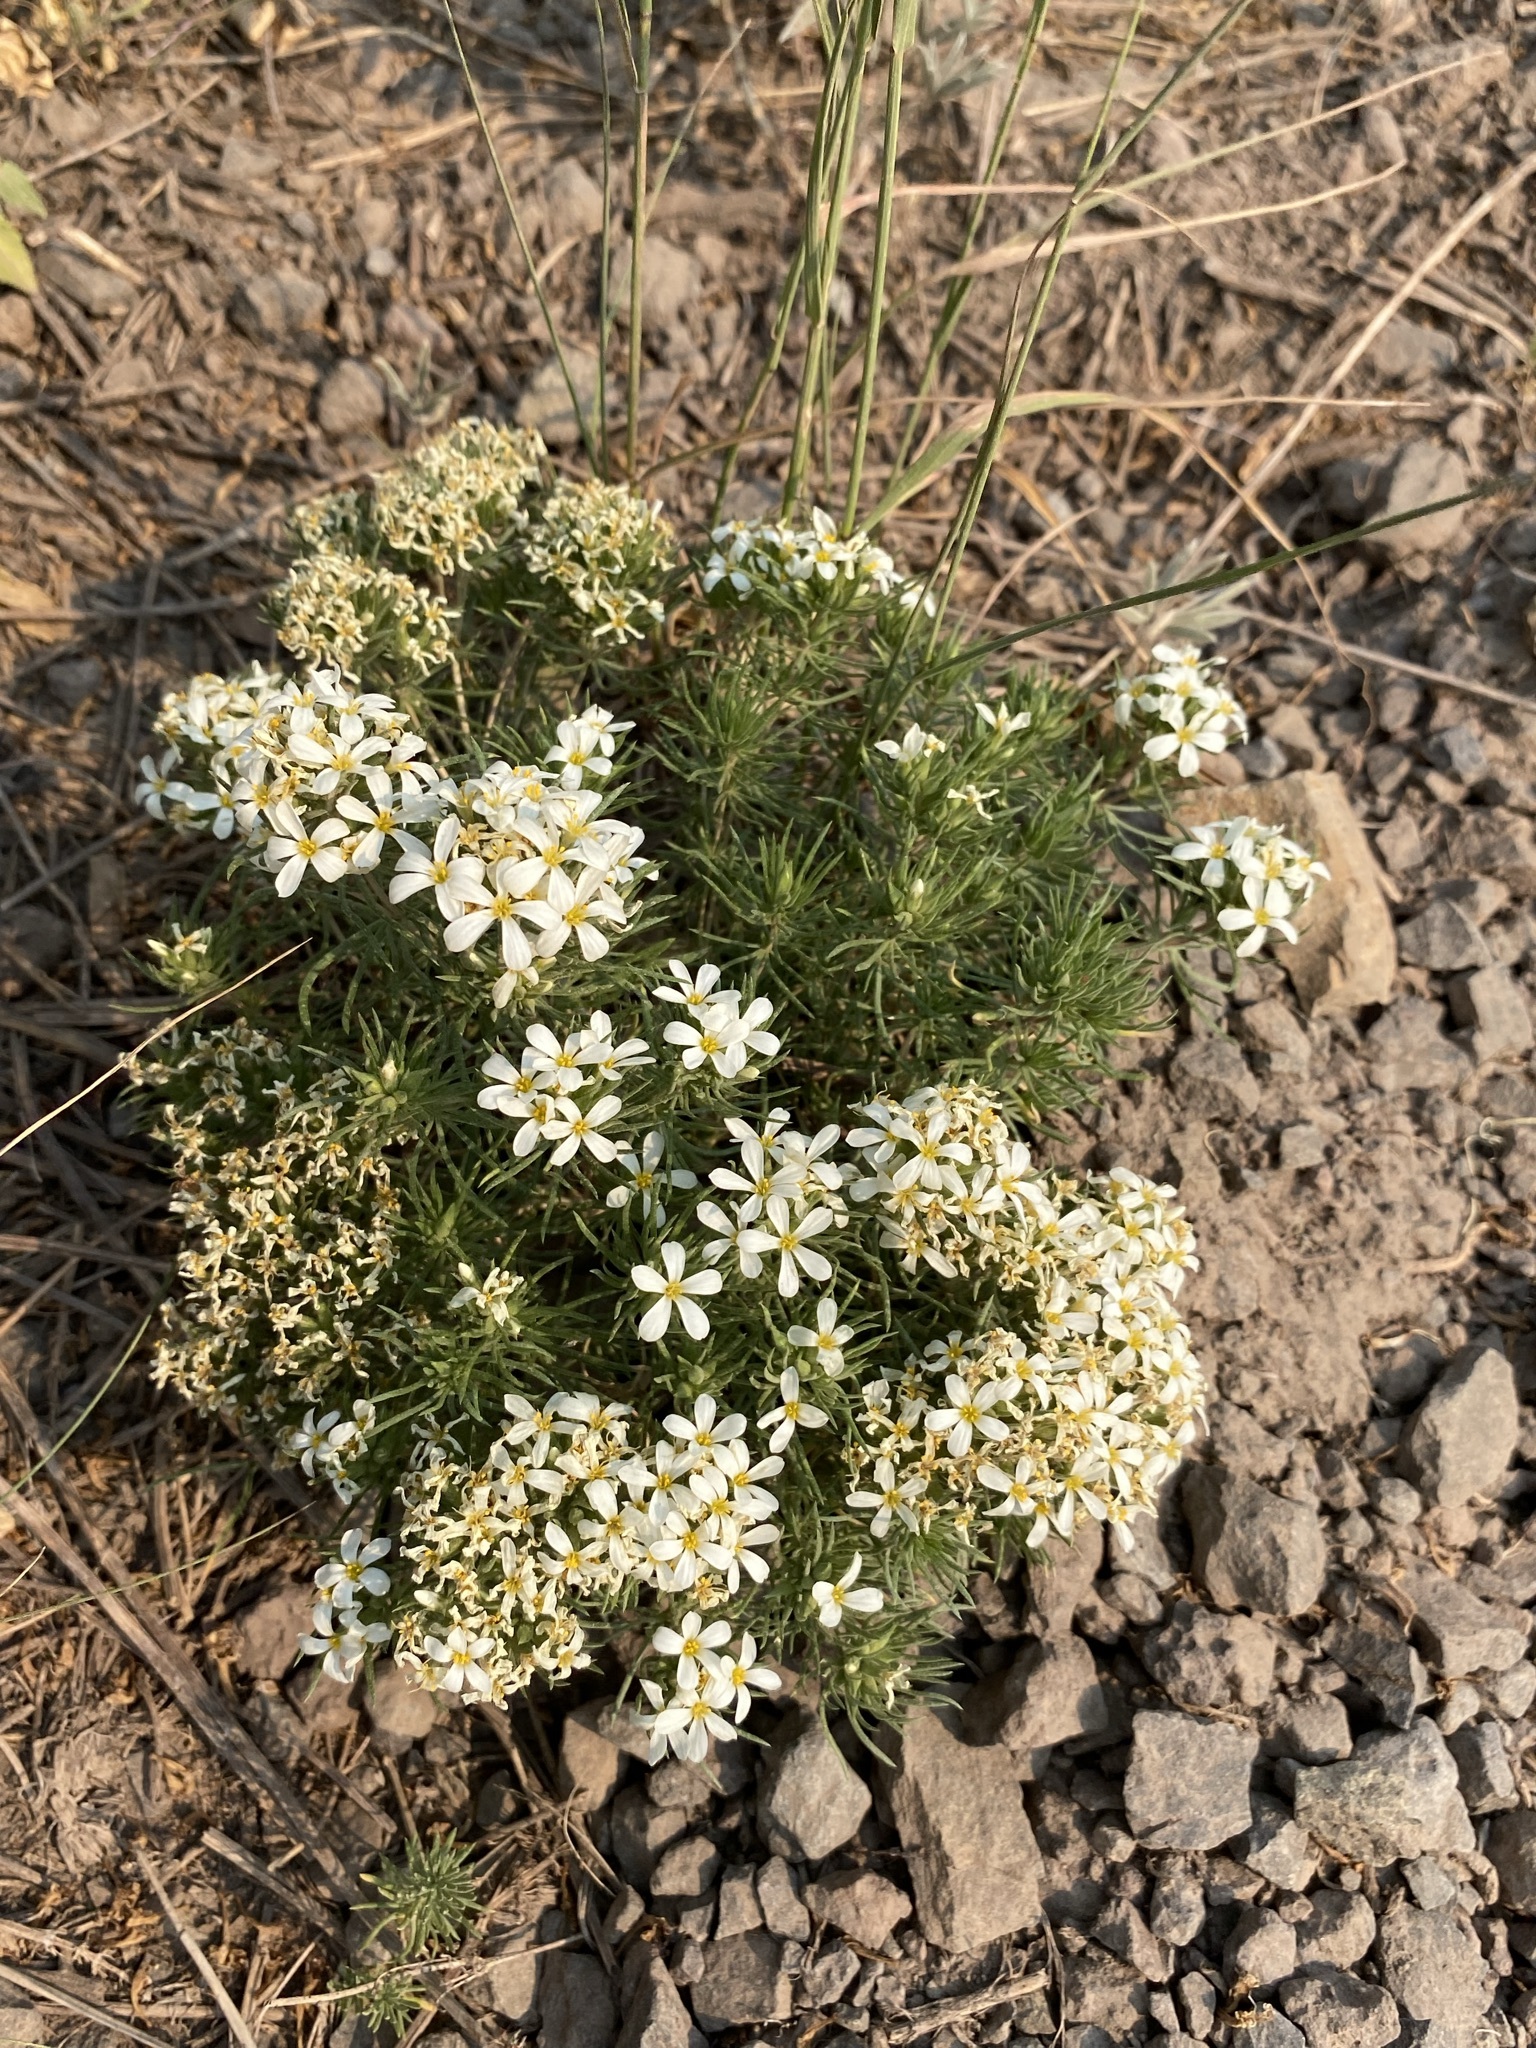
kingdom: Plantae
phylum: Tracheophyta
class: Magnoliopsida
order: Ericales
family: Polemoniaceae
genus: Leptosiphon
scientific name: Leptosiphon nuttallii
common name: Nuttall's linanthus
